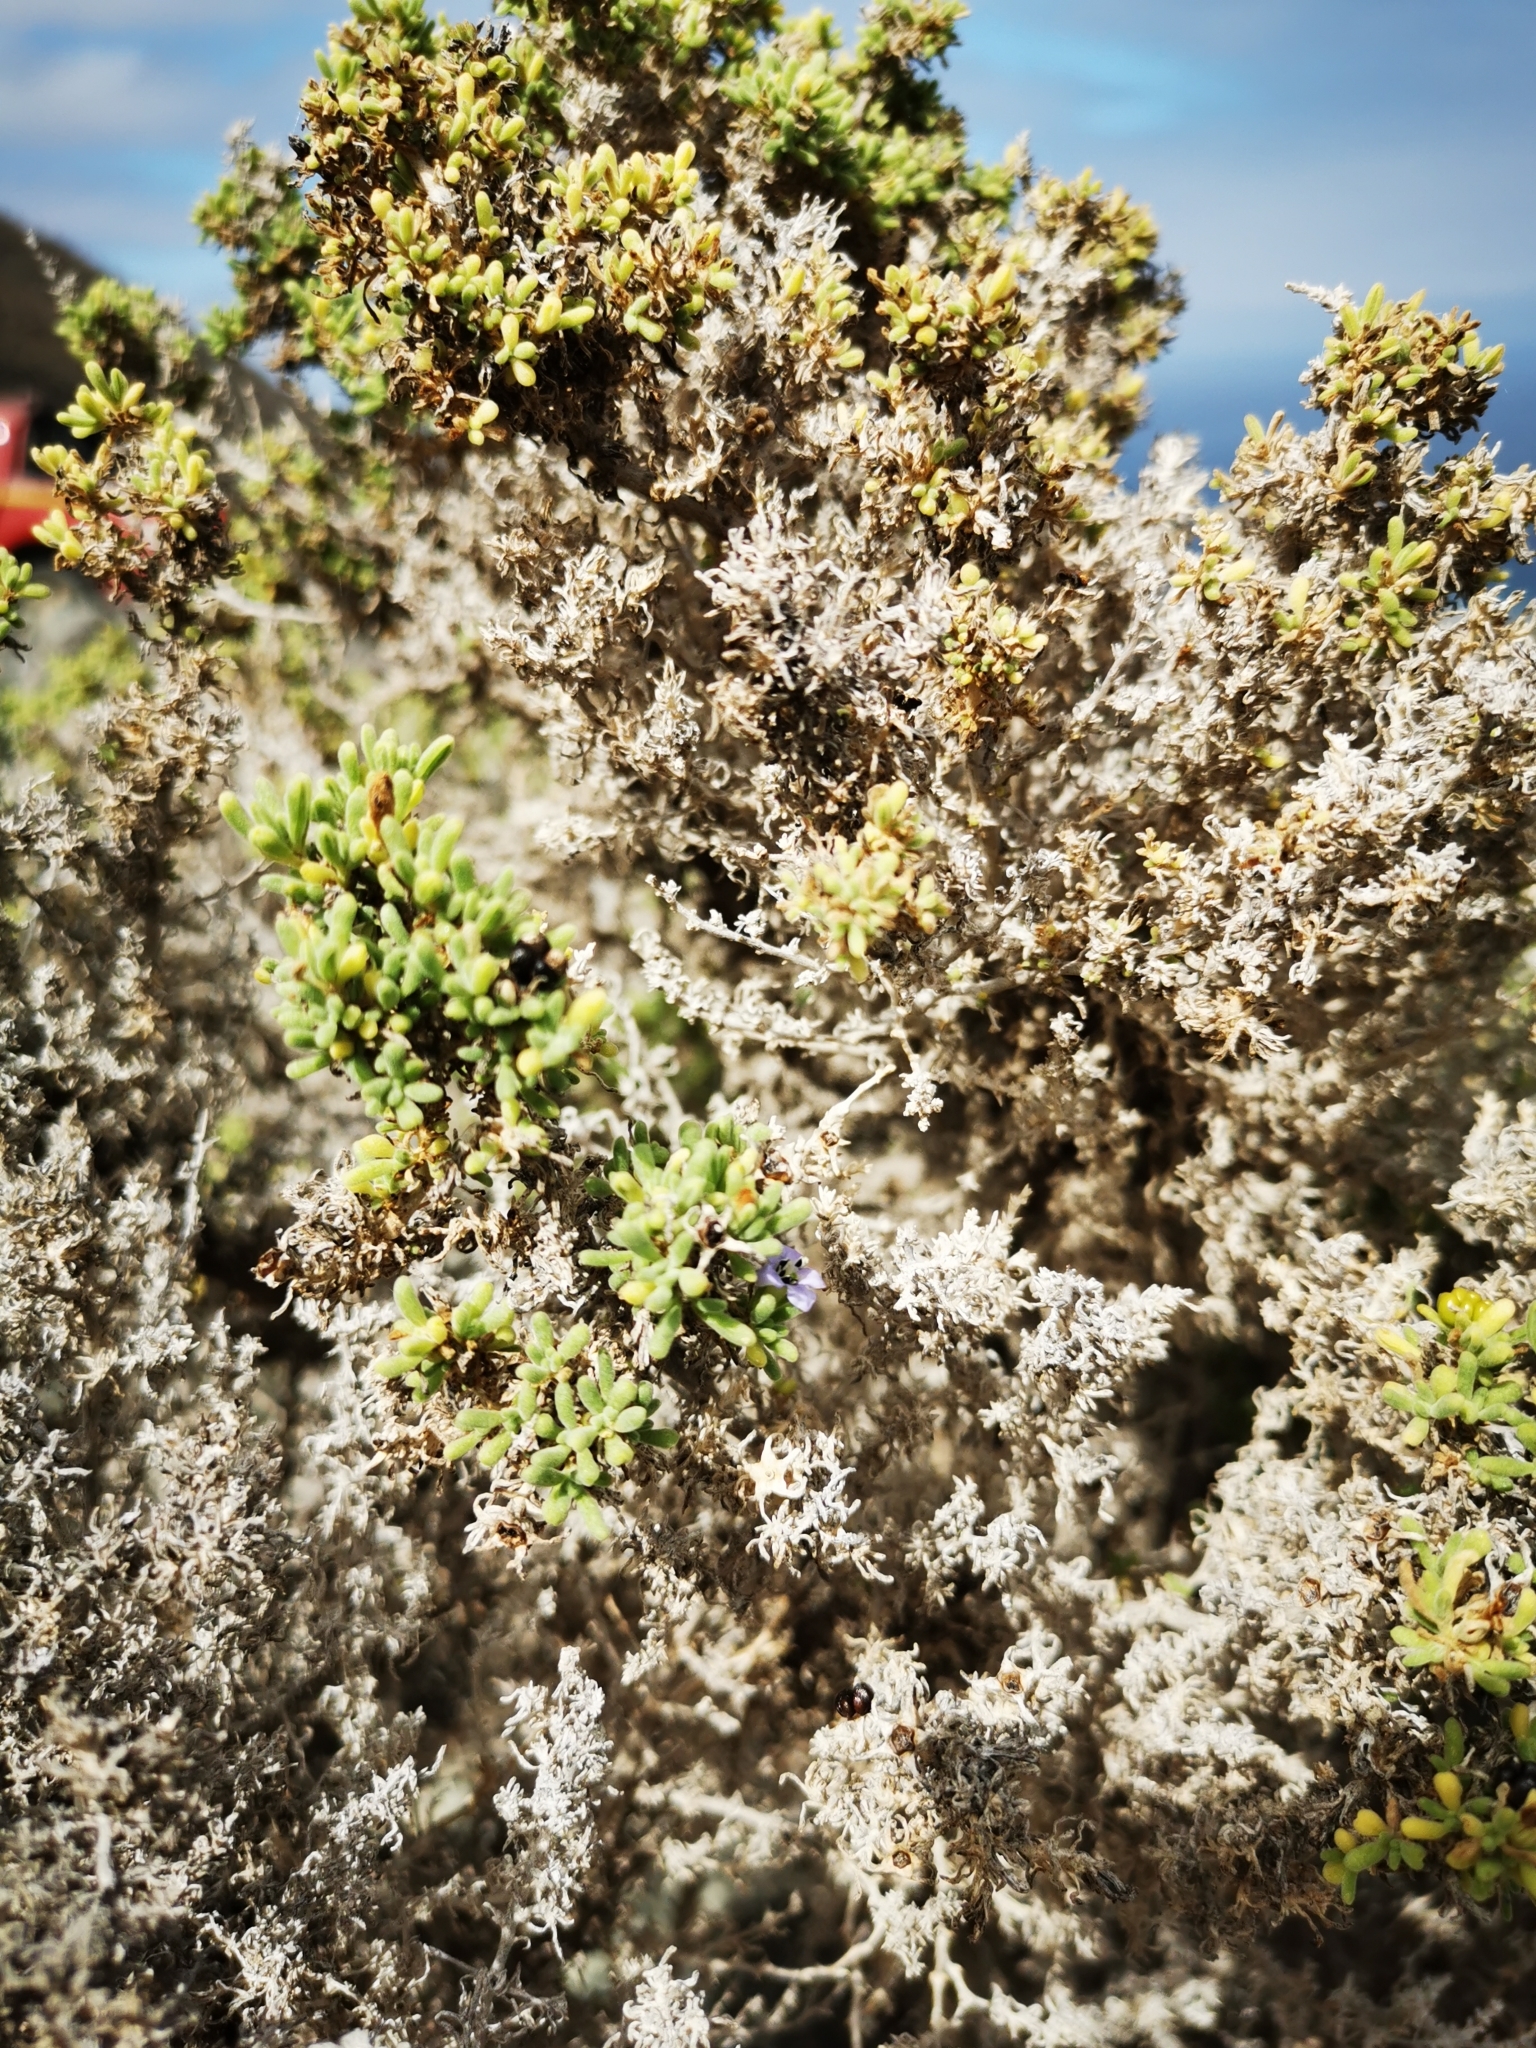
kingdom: Plantae
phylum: Tracheophyta
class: Magnoliopsida
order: Solanales
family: Solanaceae
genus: Nolana
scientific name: Nolana ramosissima
